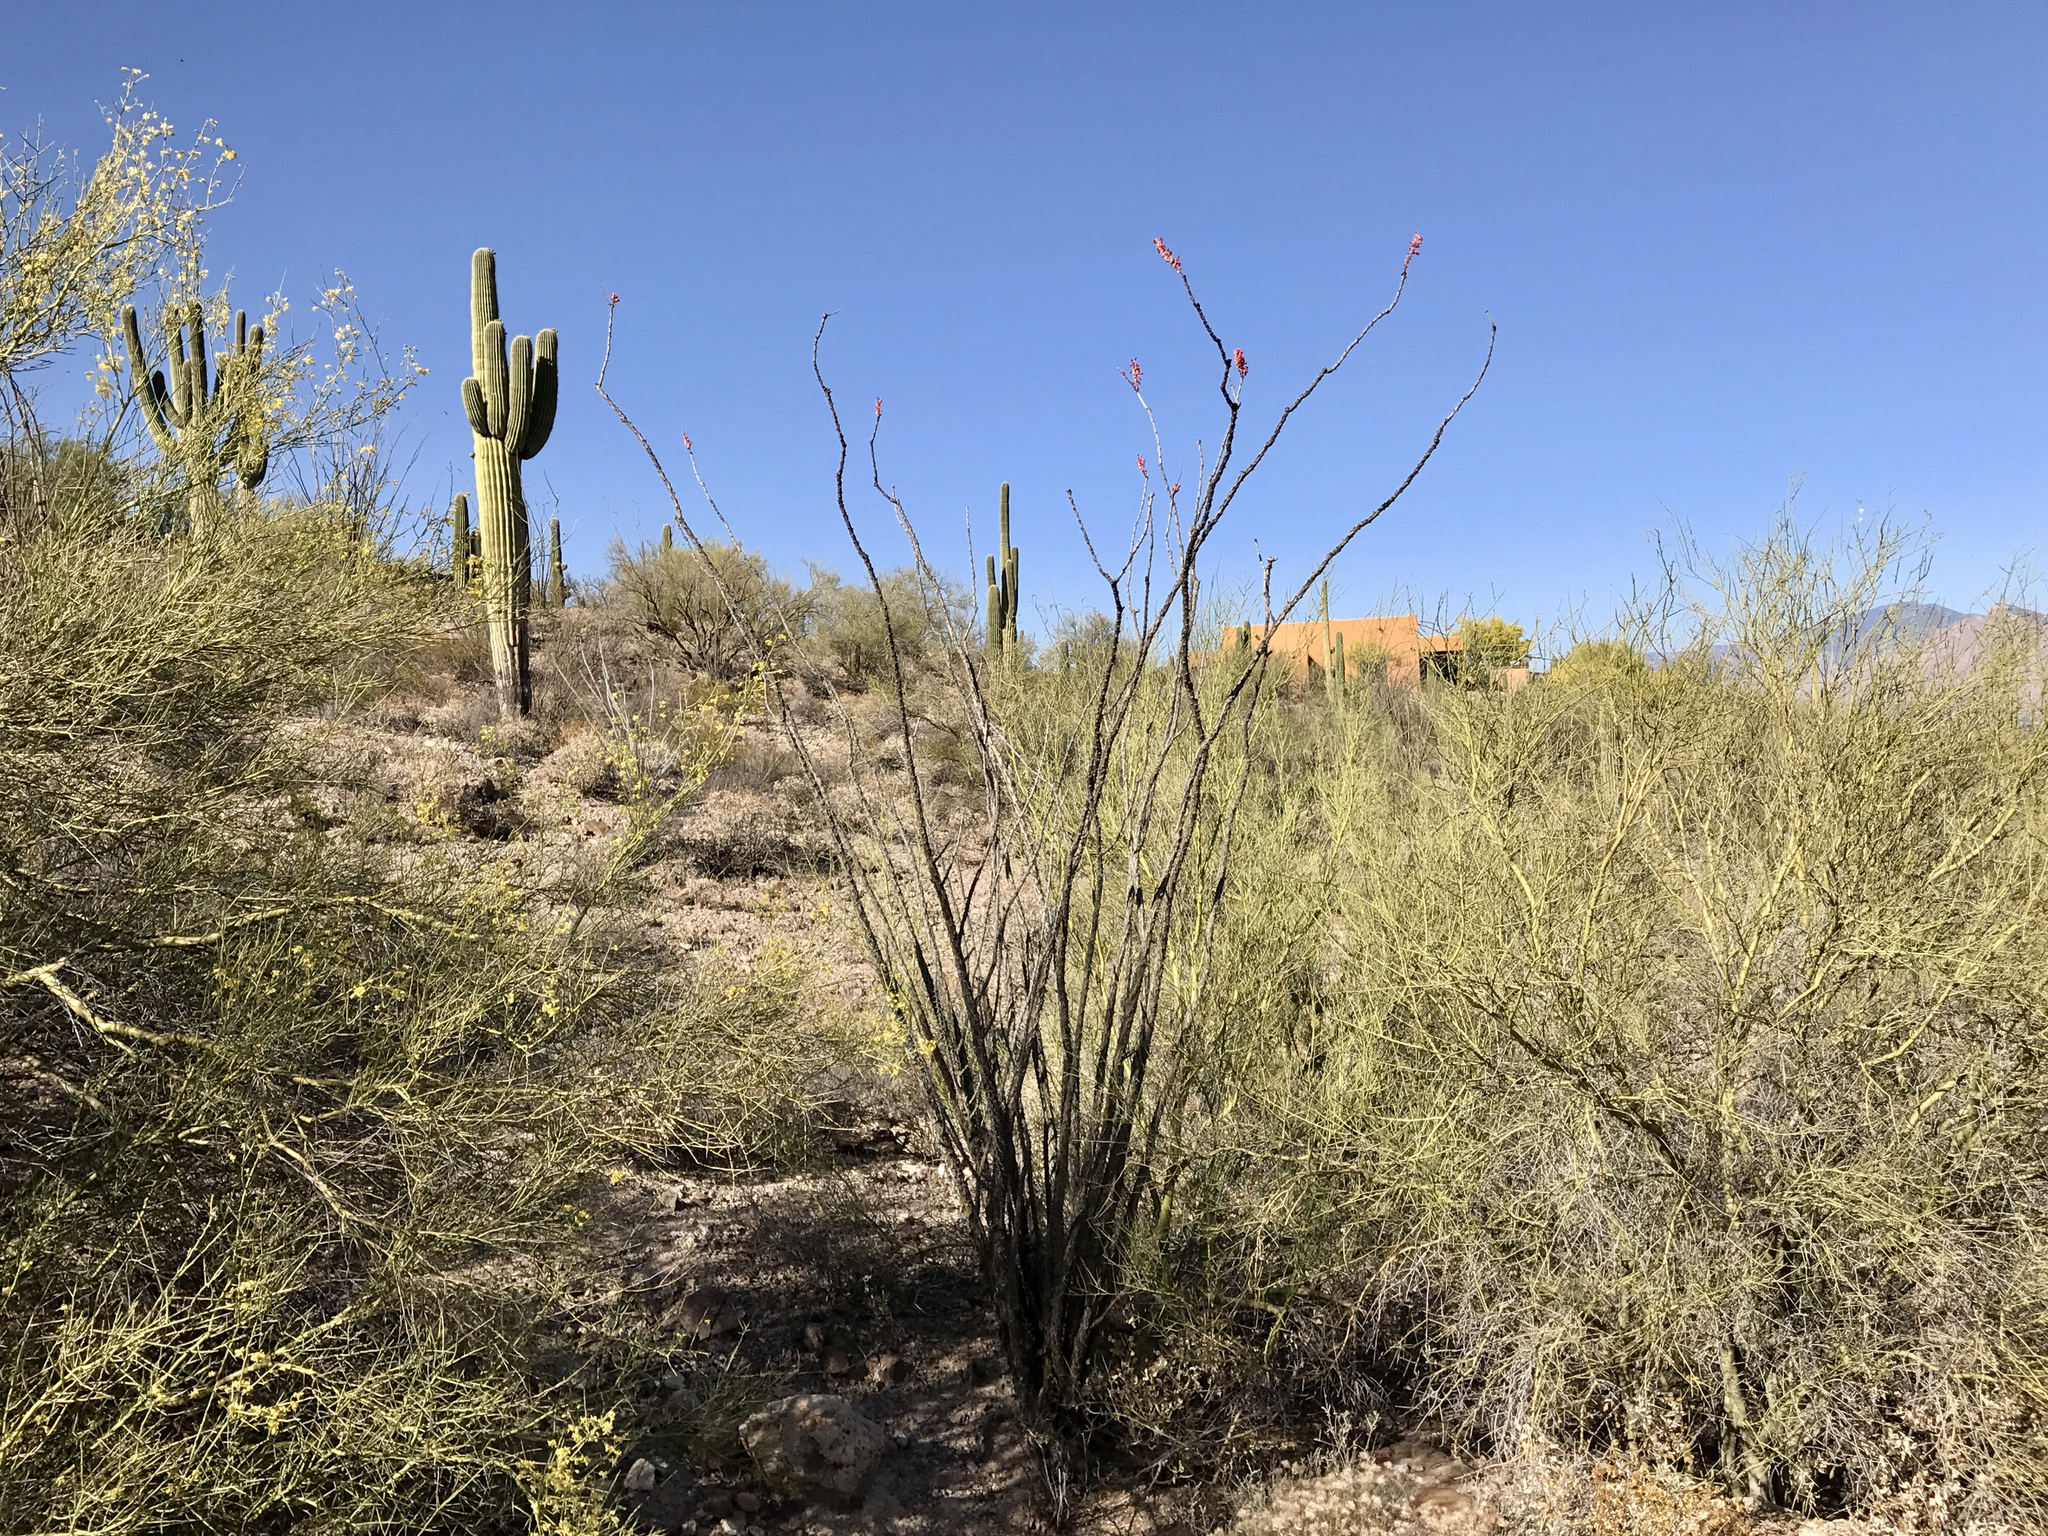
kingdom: Plantae
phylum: Tracheophyta
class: Magnoliopsida
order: Ericales
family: Fouquieriaceae
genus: Fouquieria
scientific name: Fouquieria splendens
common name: Vine-cactus
